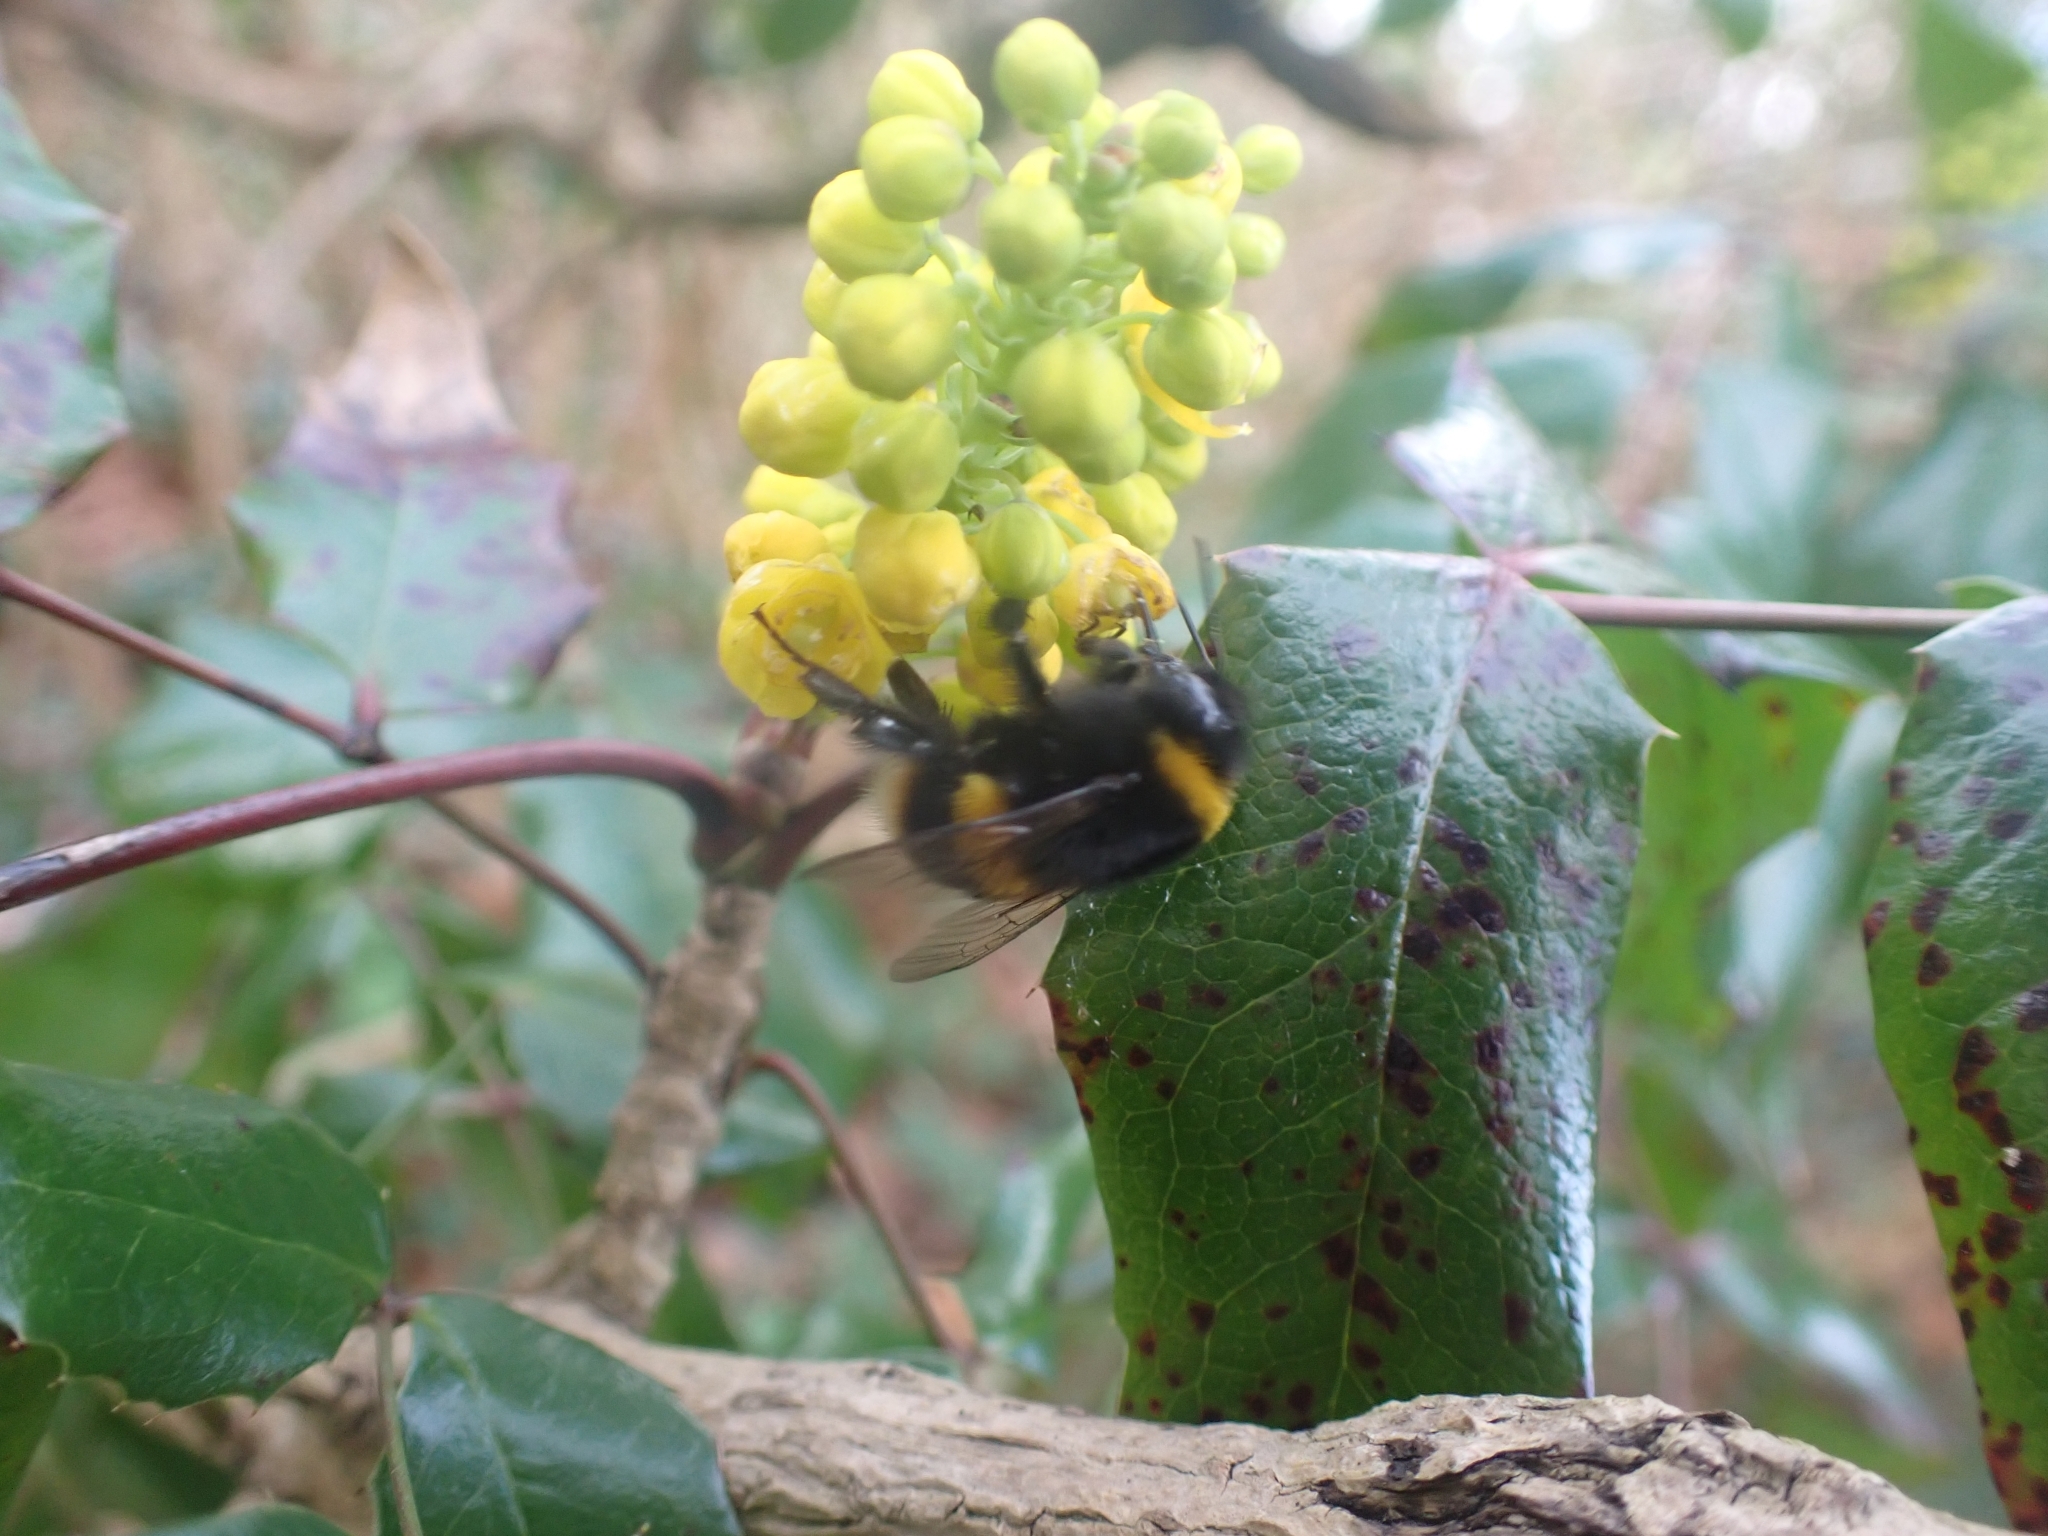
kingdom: Animalia
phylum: Arthropoda
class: Insecta
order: Hymenoptera
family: Apidae
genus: Bombus
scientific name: Bombus terrestris
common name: Buff-tailed bumblebee
